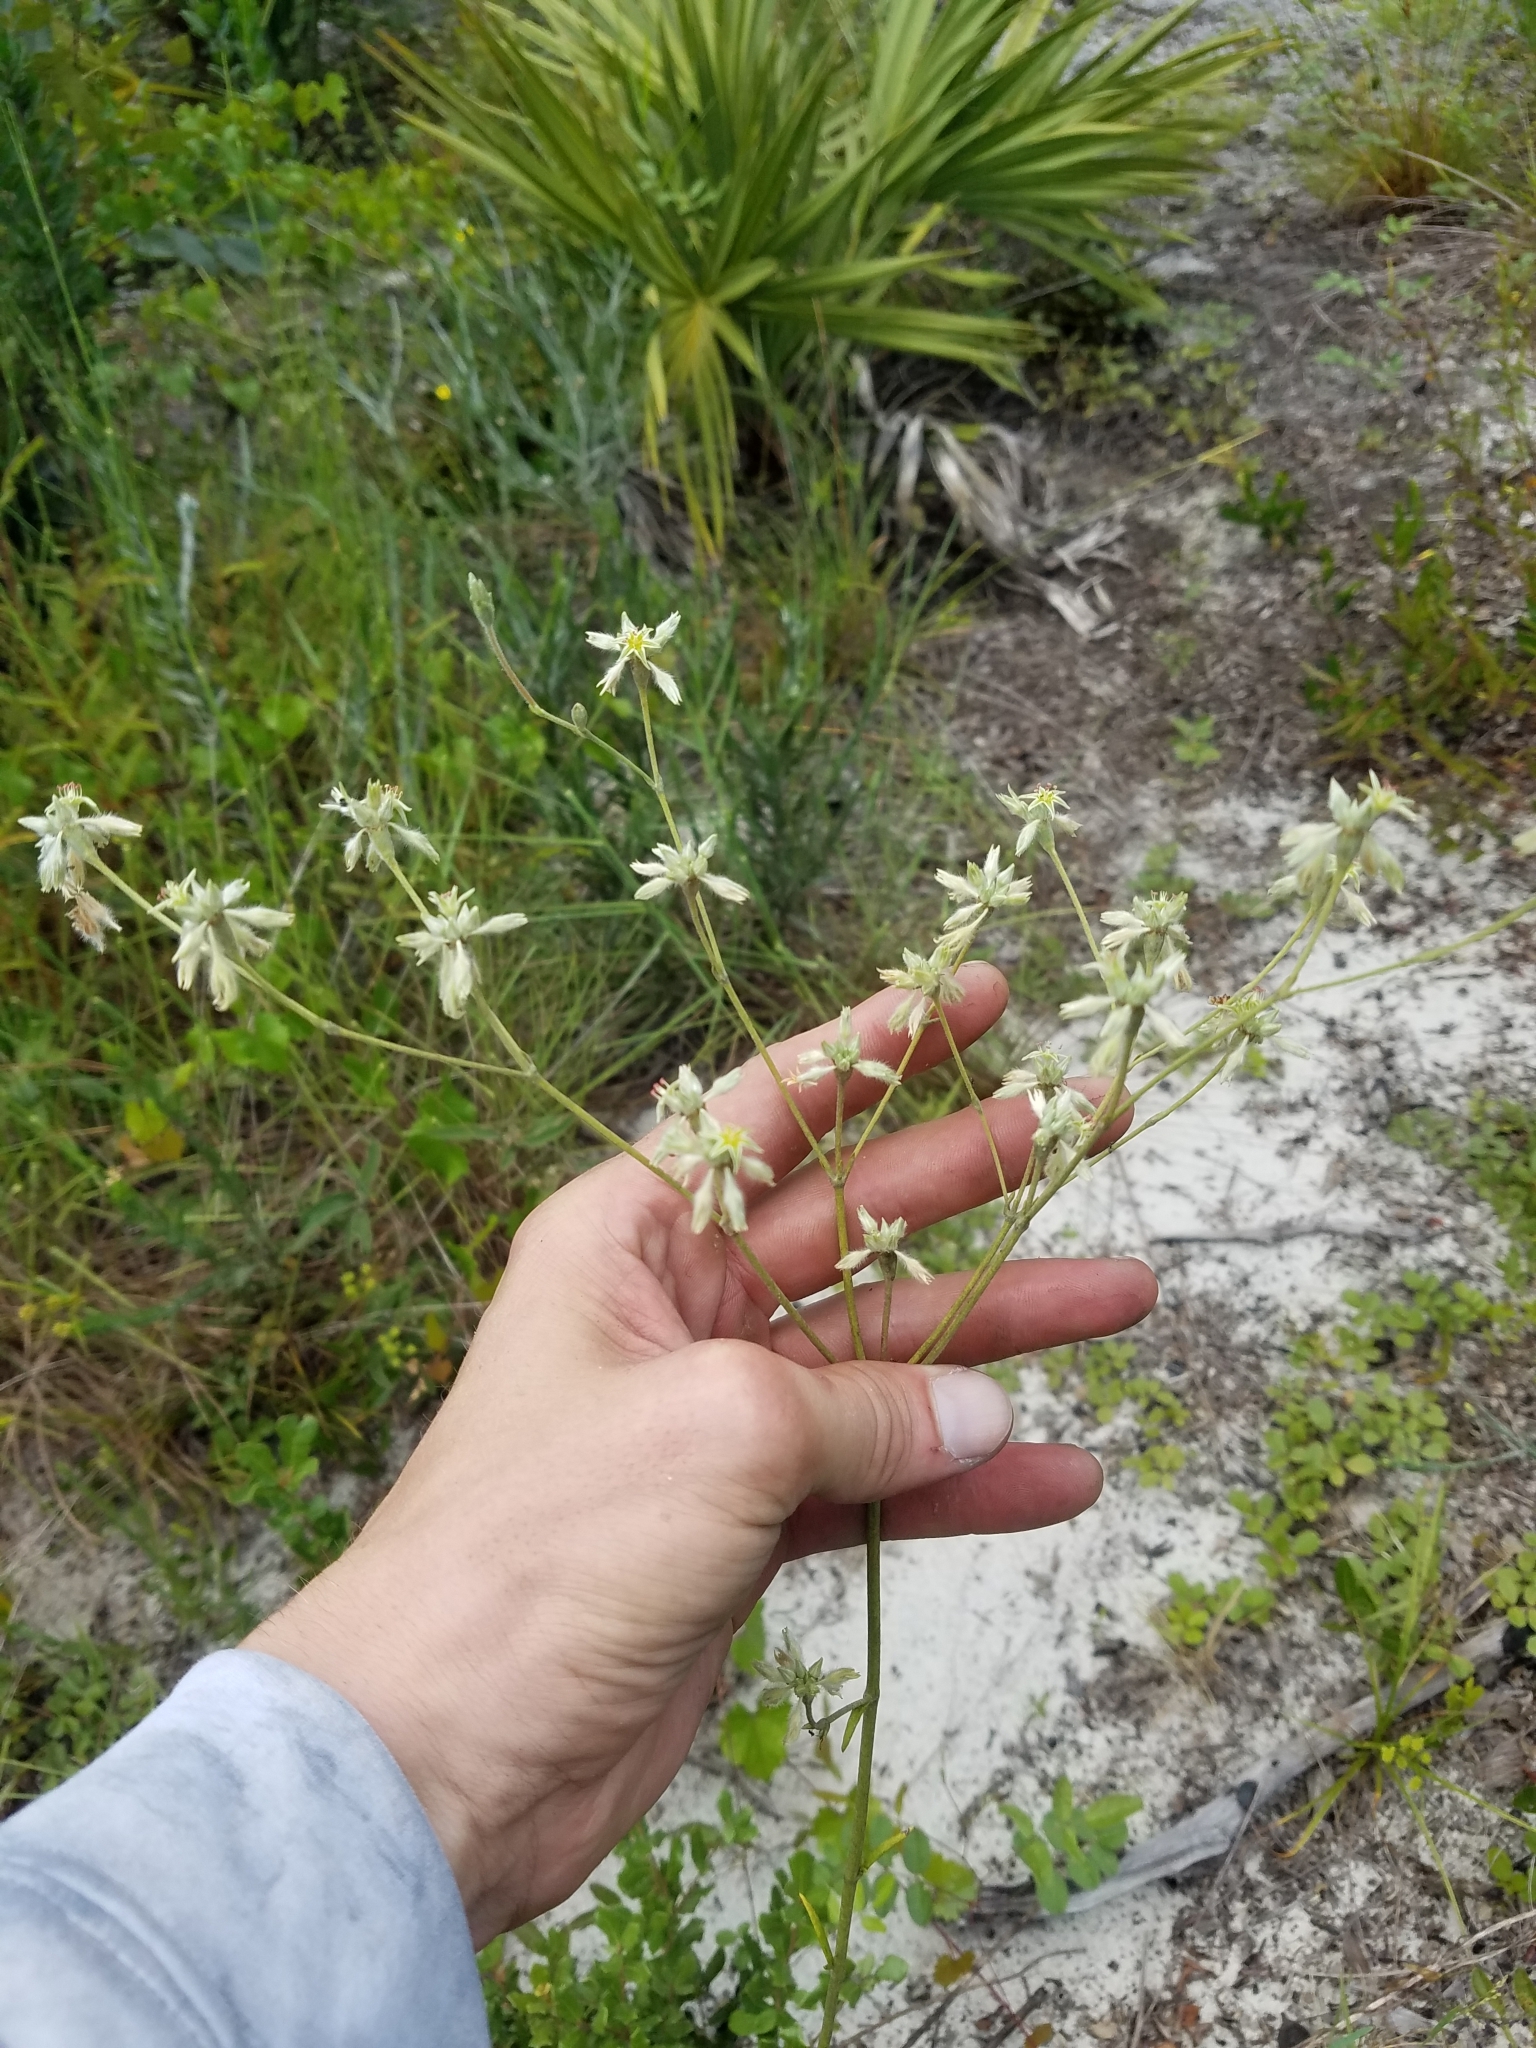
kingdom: Plantae
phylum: Tracheophyta
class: Magnoliopsida
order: Caryophyllales
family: Polygonaceae
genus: Eriogonum
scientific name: Eriogonum longifolium
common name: Longleaf wild buckwheat
